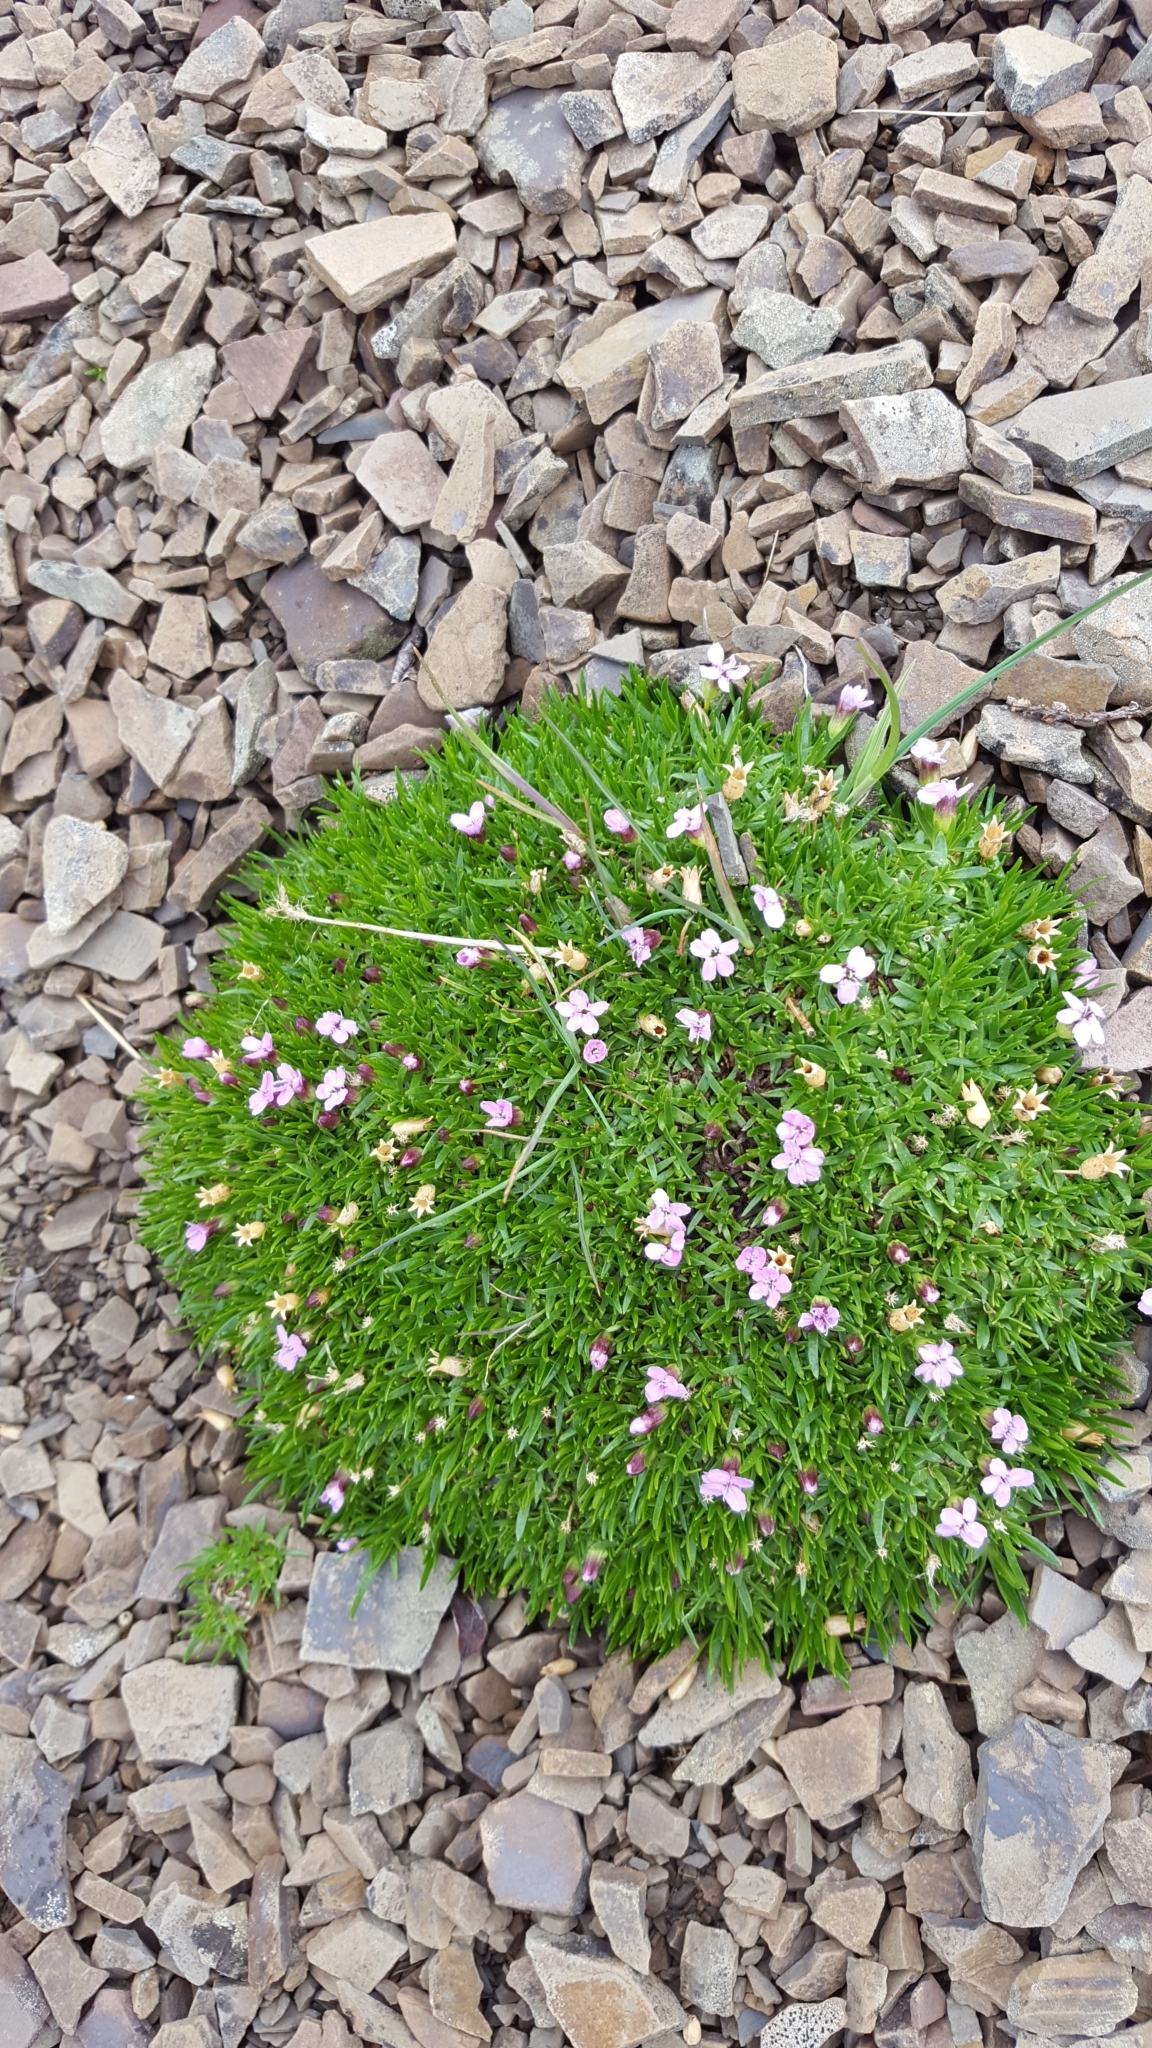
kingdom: Plantae
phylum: Tracheophyta
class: Magnoliopsida
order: Caryophyllales
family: Caryophyllaceae
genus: Silene
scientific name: Silene acaulis
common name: Moss campion
